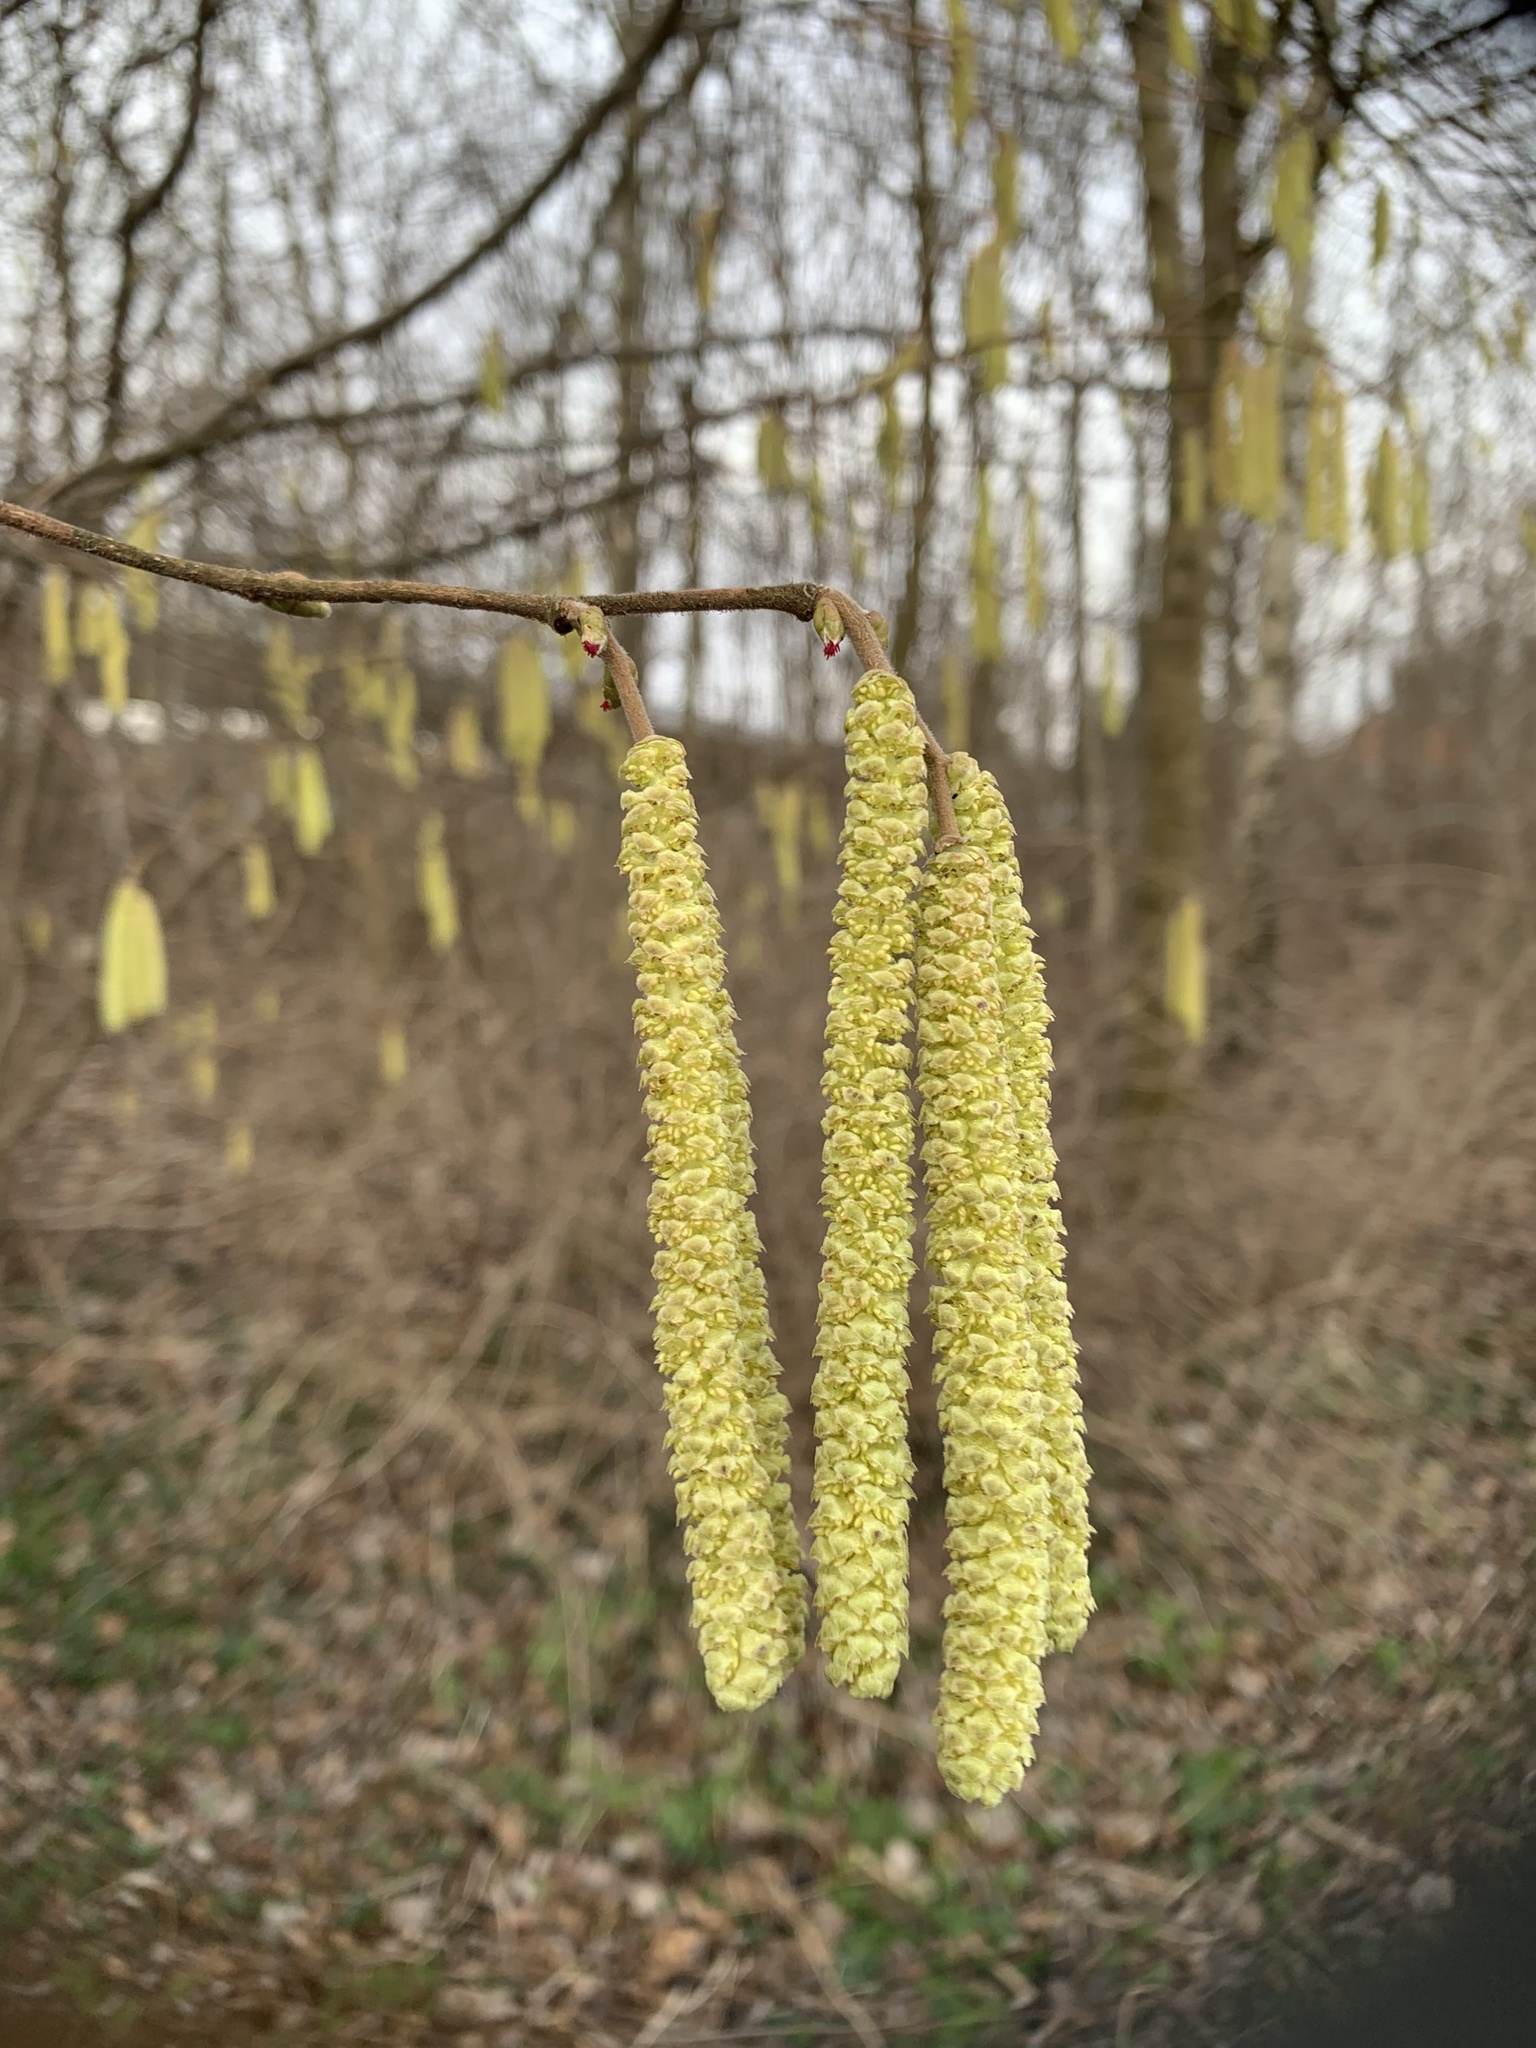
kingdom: Plantae
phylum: Tracheophyta
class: Magnoliopsida
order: Fagales
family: Betulaceae
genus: Corylus
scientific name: Corylus avellana
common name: European hazel
